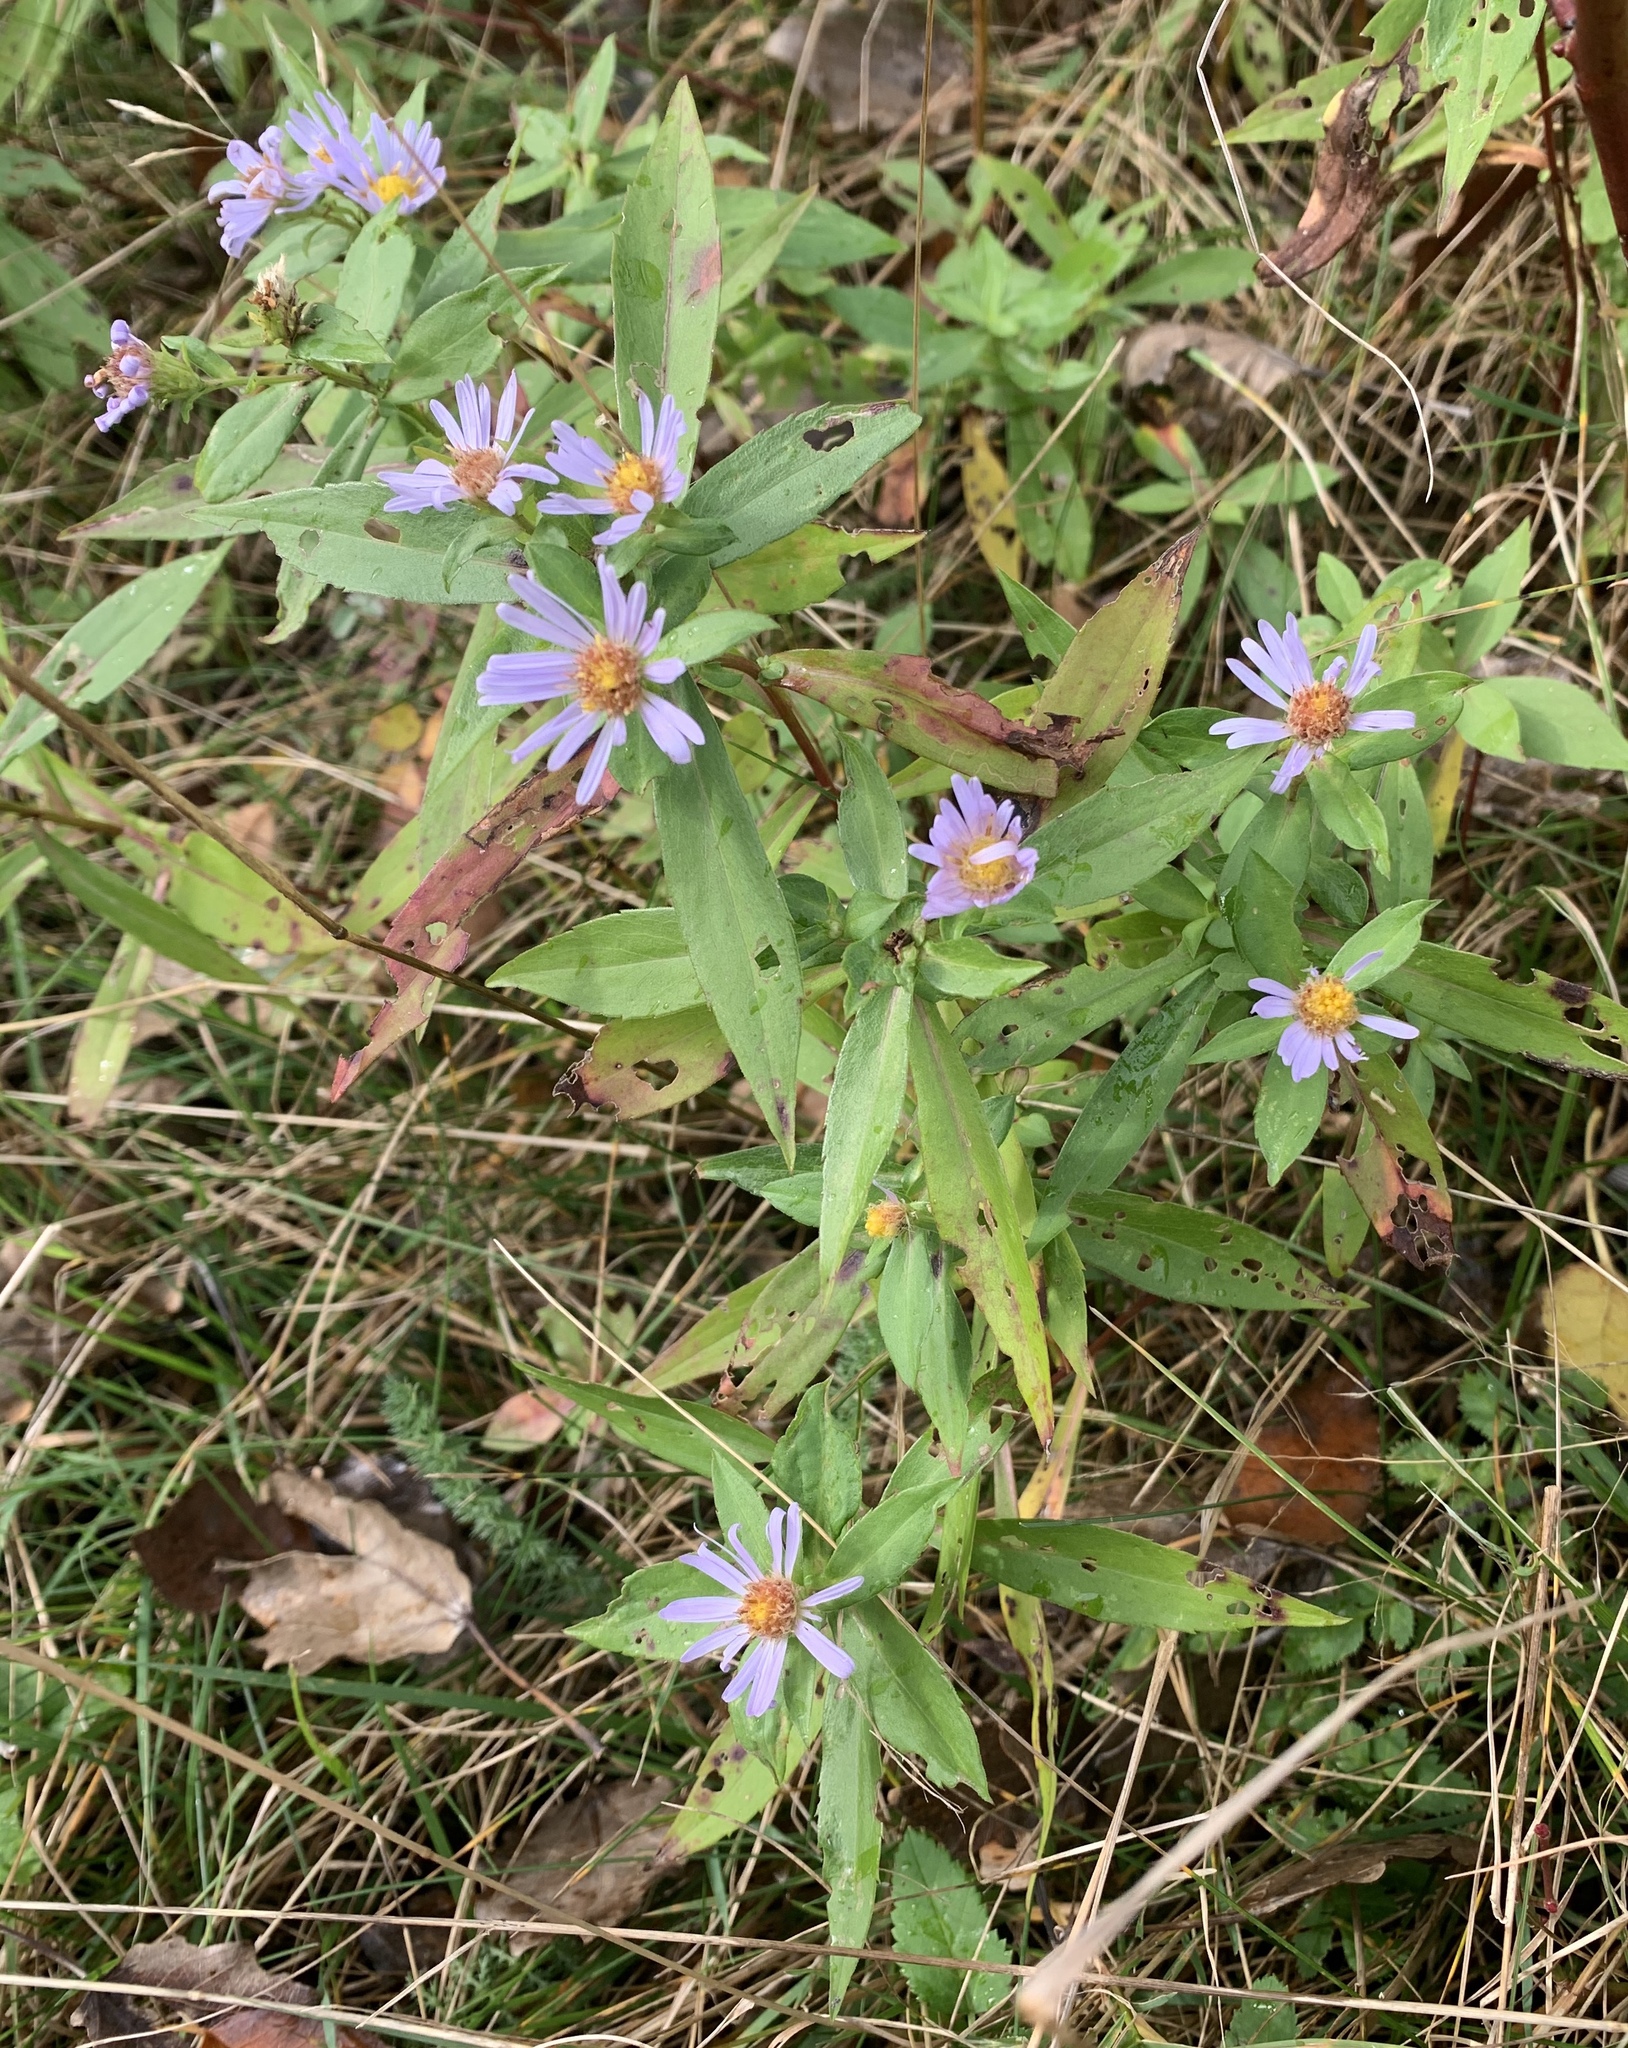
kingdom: Plantae
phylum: Tracheophyta
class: Magnoliopsida
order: Asterales
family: Asteraceae
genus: Symphyotrichum
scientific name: Symphyotrichum novi-belgii
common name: Michaelmas daisy
